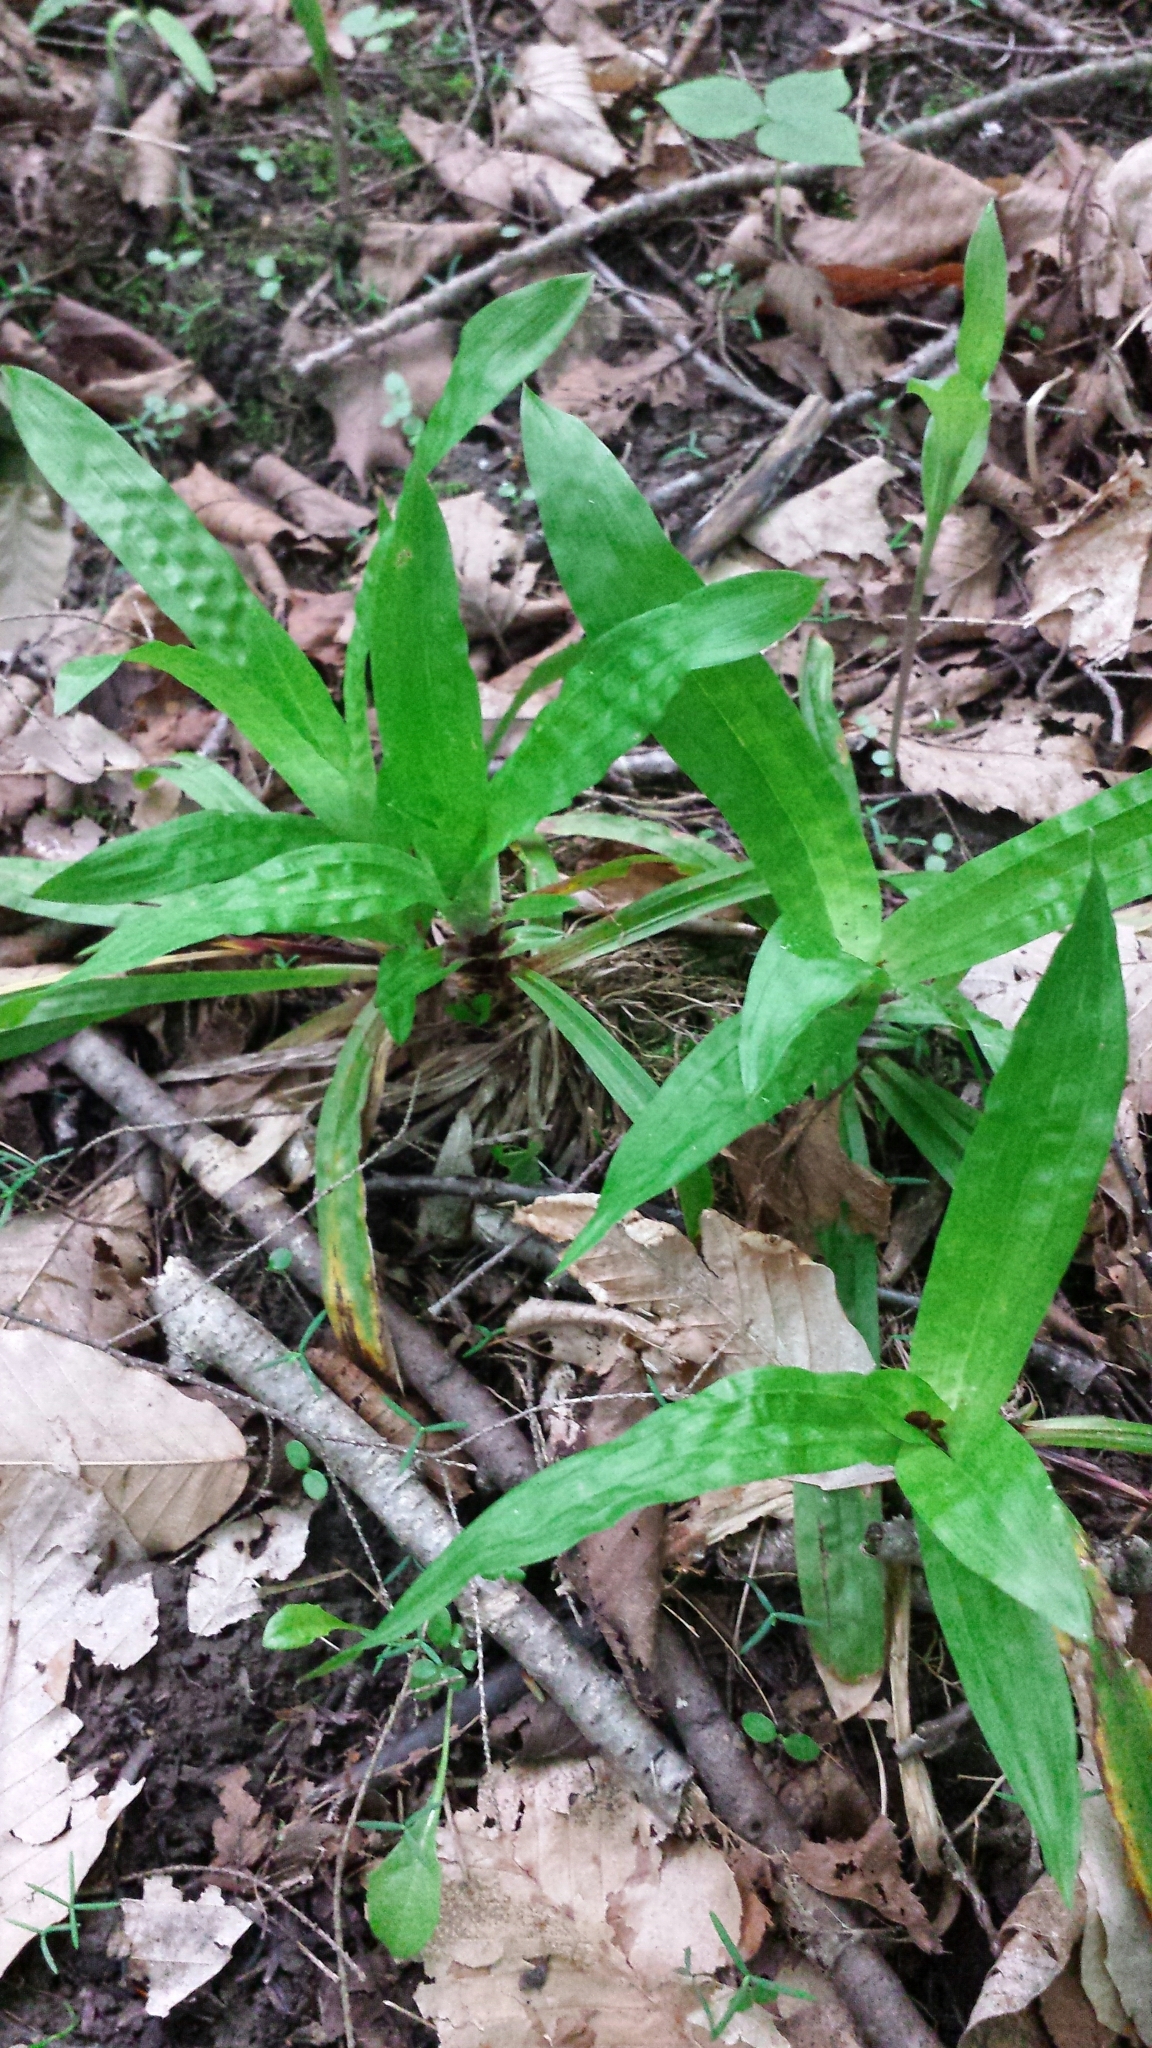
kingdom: Plantae
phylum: Tracheophyta
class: Liliopsida
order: Poales
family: Cyperaceae
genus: Carex
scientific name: Carex plantaginea
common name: Plantain-leaved sedge
